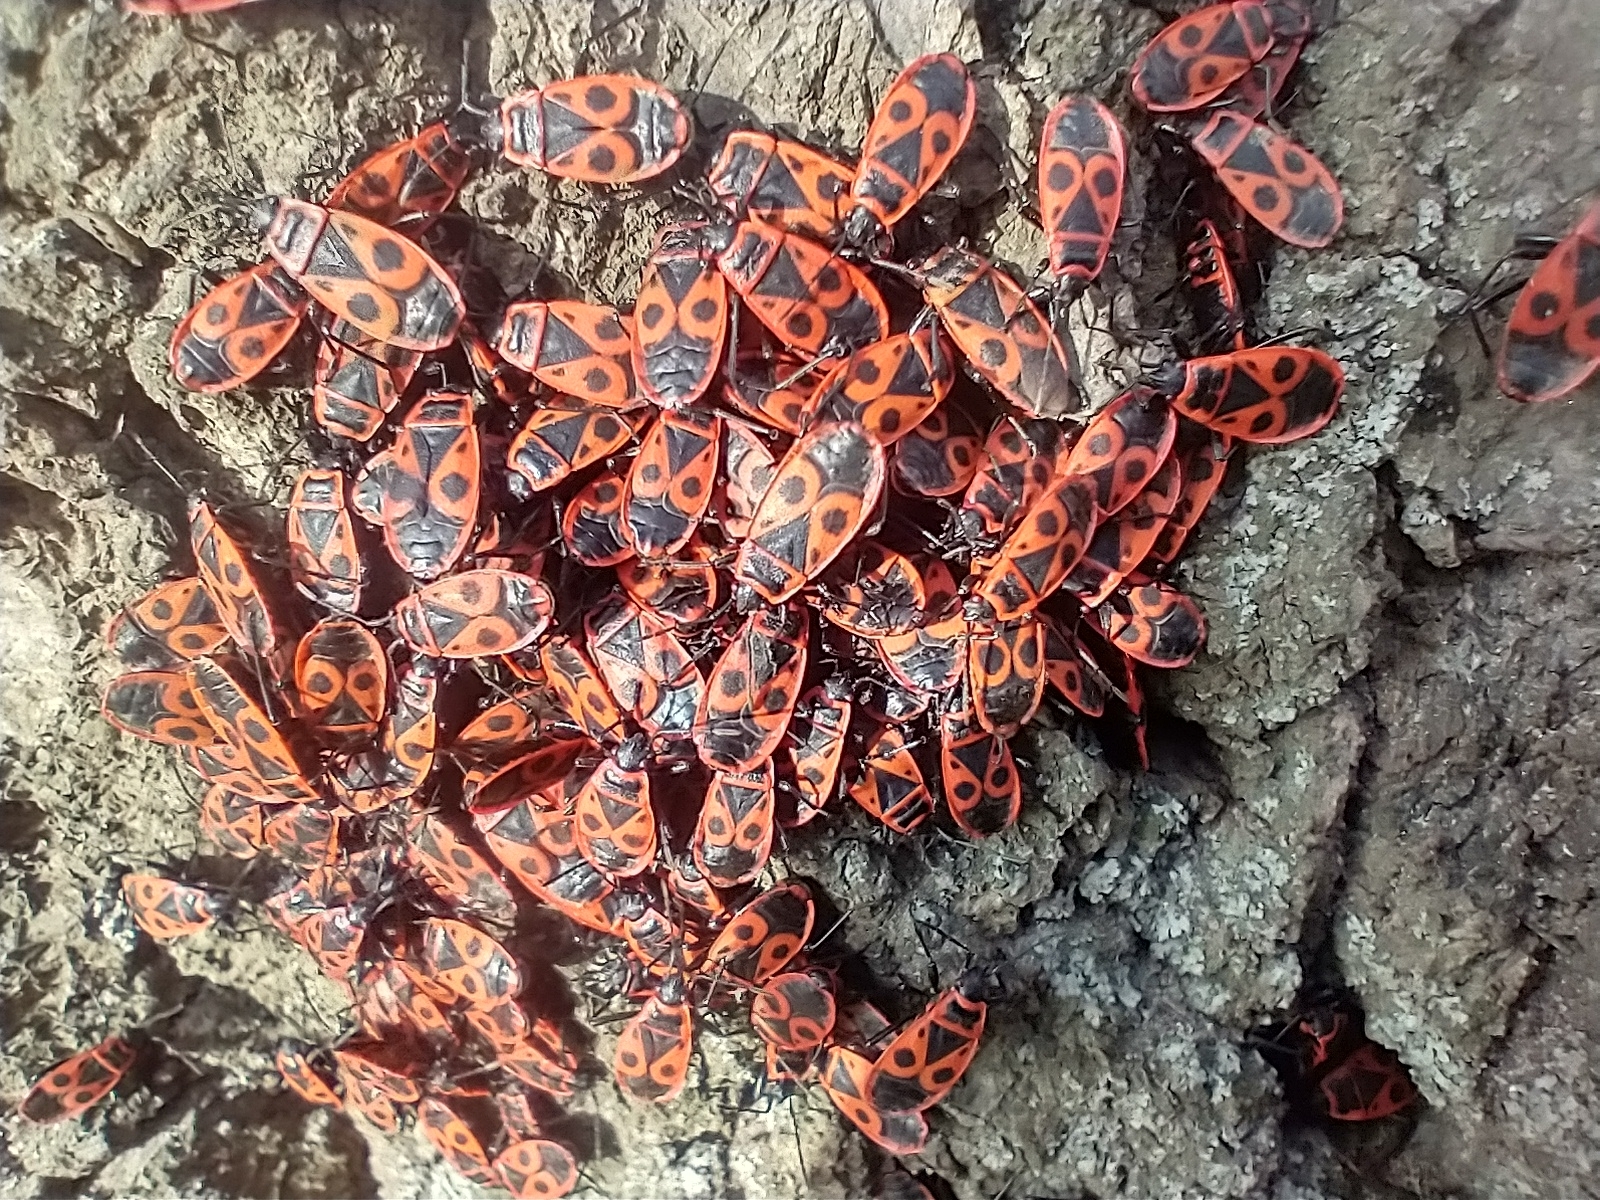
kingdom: Animalia
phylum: Arthropoda
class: Insecta
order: Hemiptera
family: Pyrrhocoridae
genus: Pyrrhocoris
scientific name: Pyrrhocoris apterus
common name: Firebug
